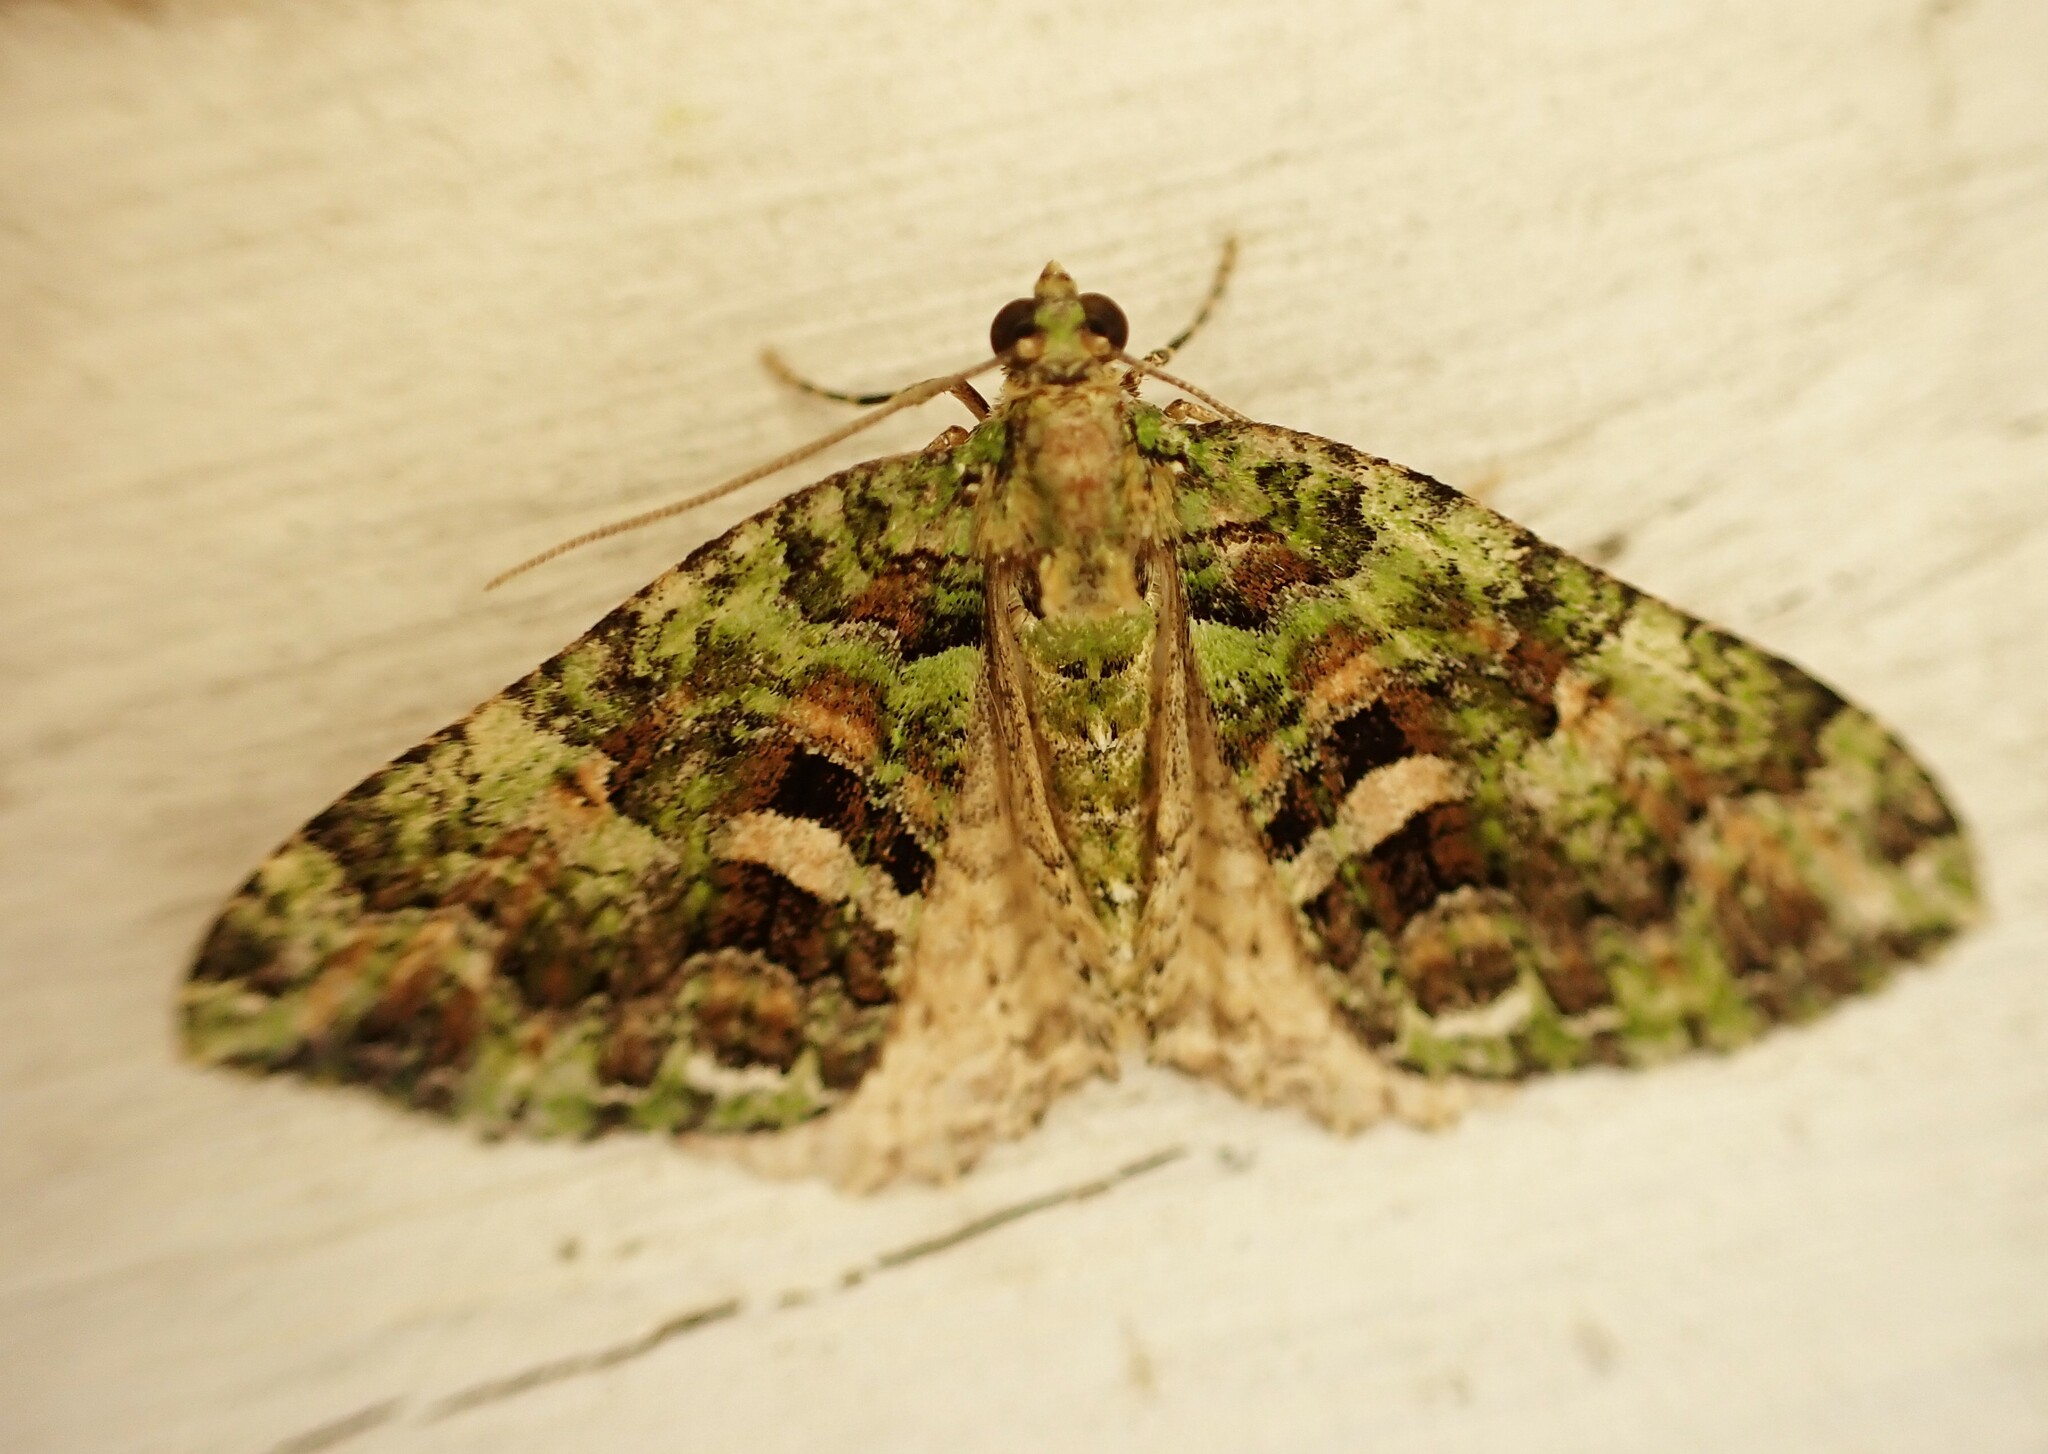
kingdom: Animalia
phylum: Arthropoda
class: Insecta
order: Lepidoptera
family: Geometridae
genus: Austrocidaria
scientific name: Austrocidaria similata
